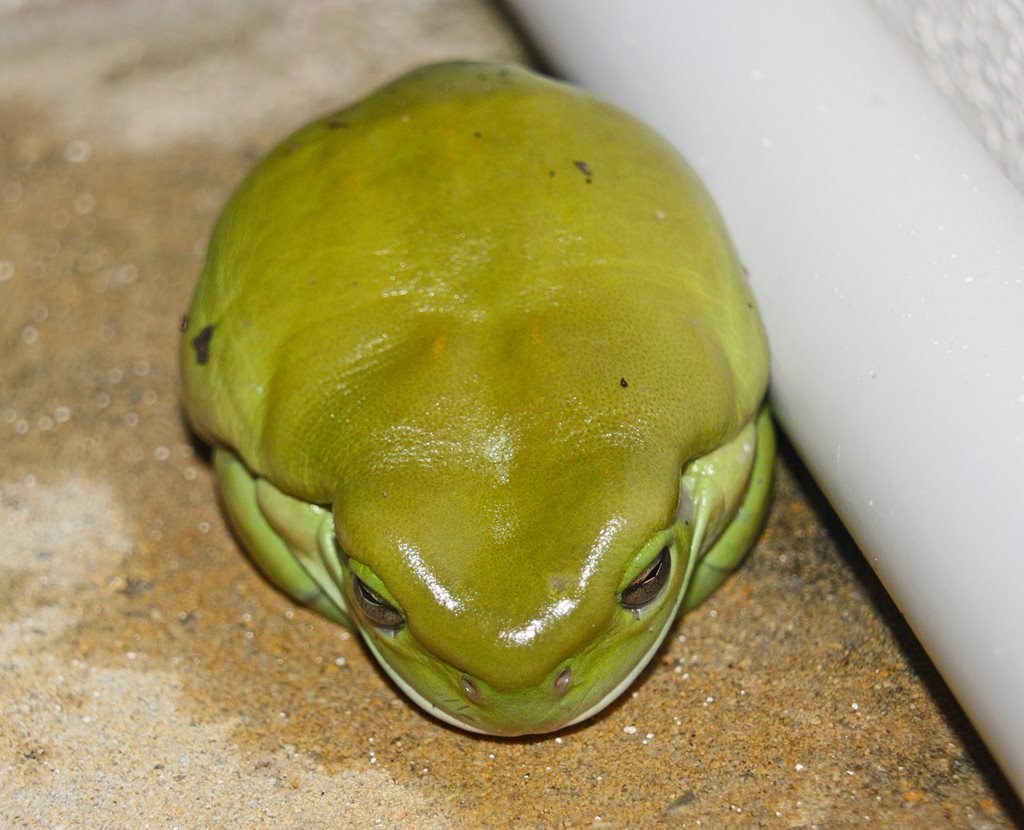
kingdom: Animalia
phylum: Chordata
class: Amphibia
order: Anura
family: Pelodryadidae
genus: Ranoidea
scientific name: Ranoidea caerulea
